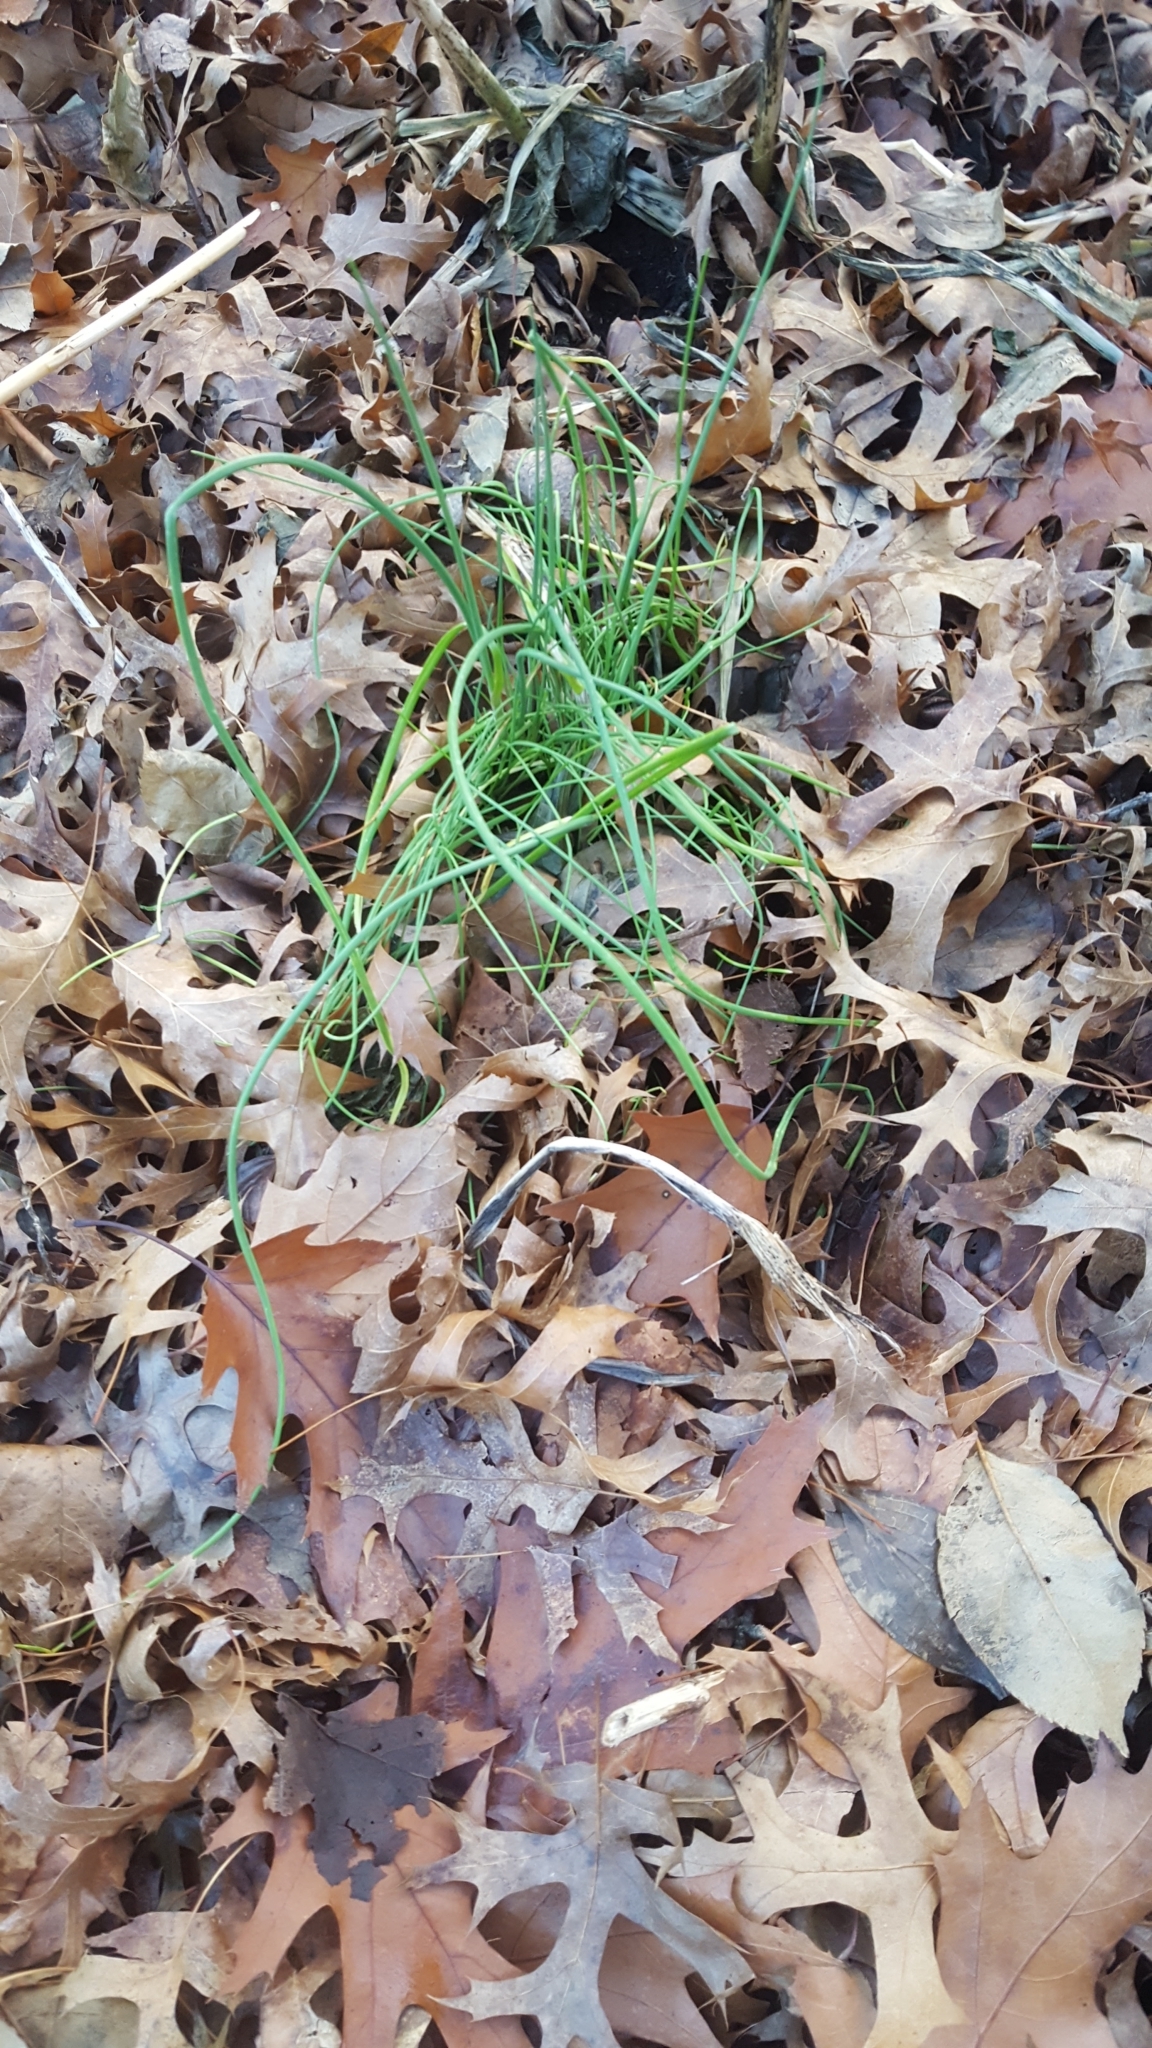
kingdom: Plantae
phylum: Tracheophyta
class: Liliopsida
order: Asparagales
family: Amaryllidaceae
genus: Allium
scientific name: Allium vineale
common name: Crow garlic
